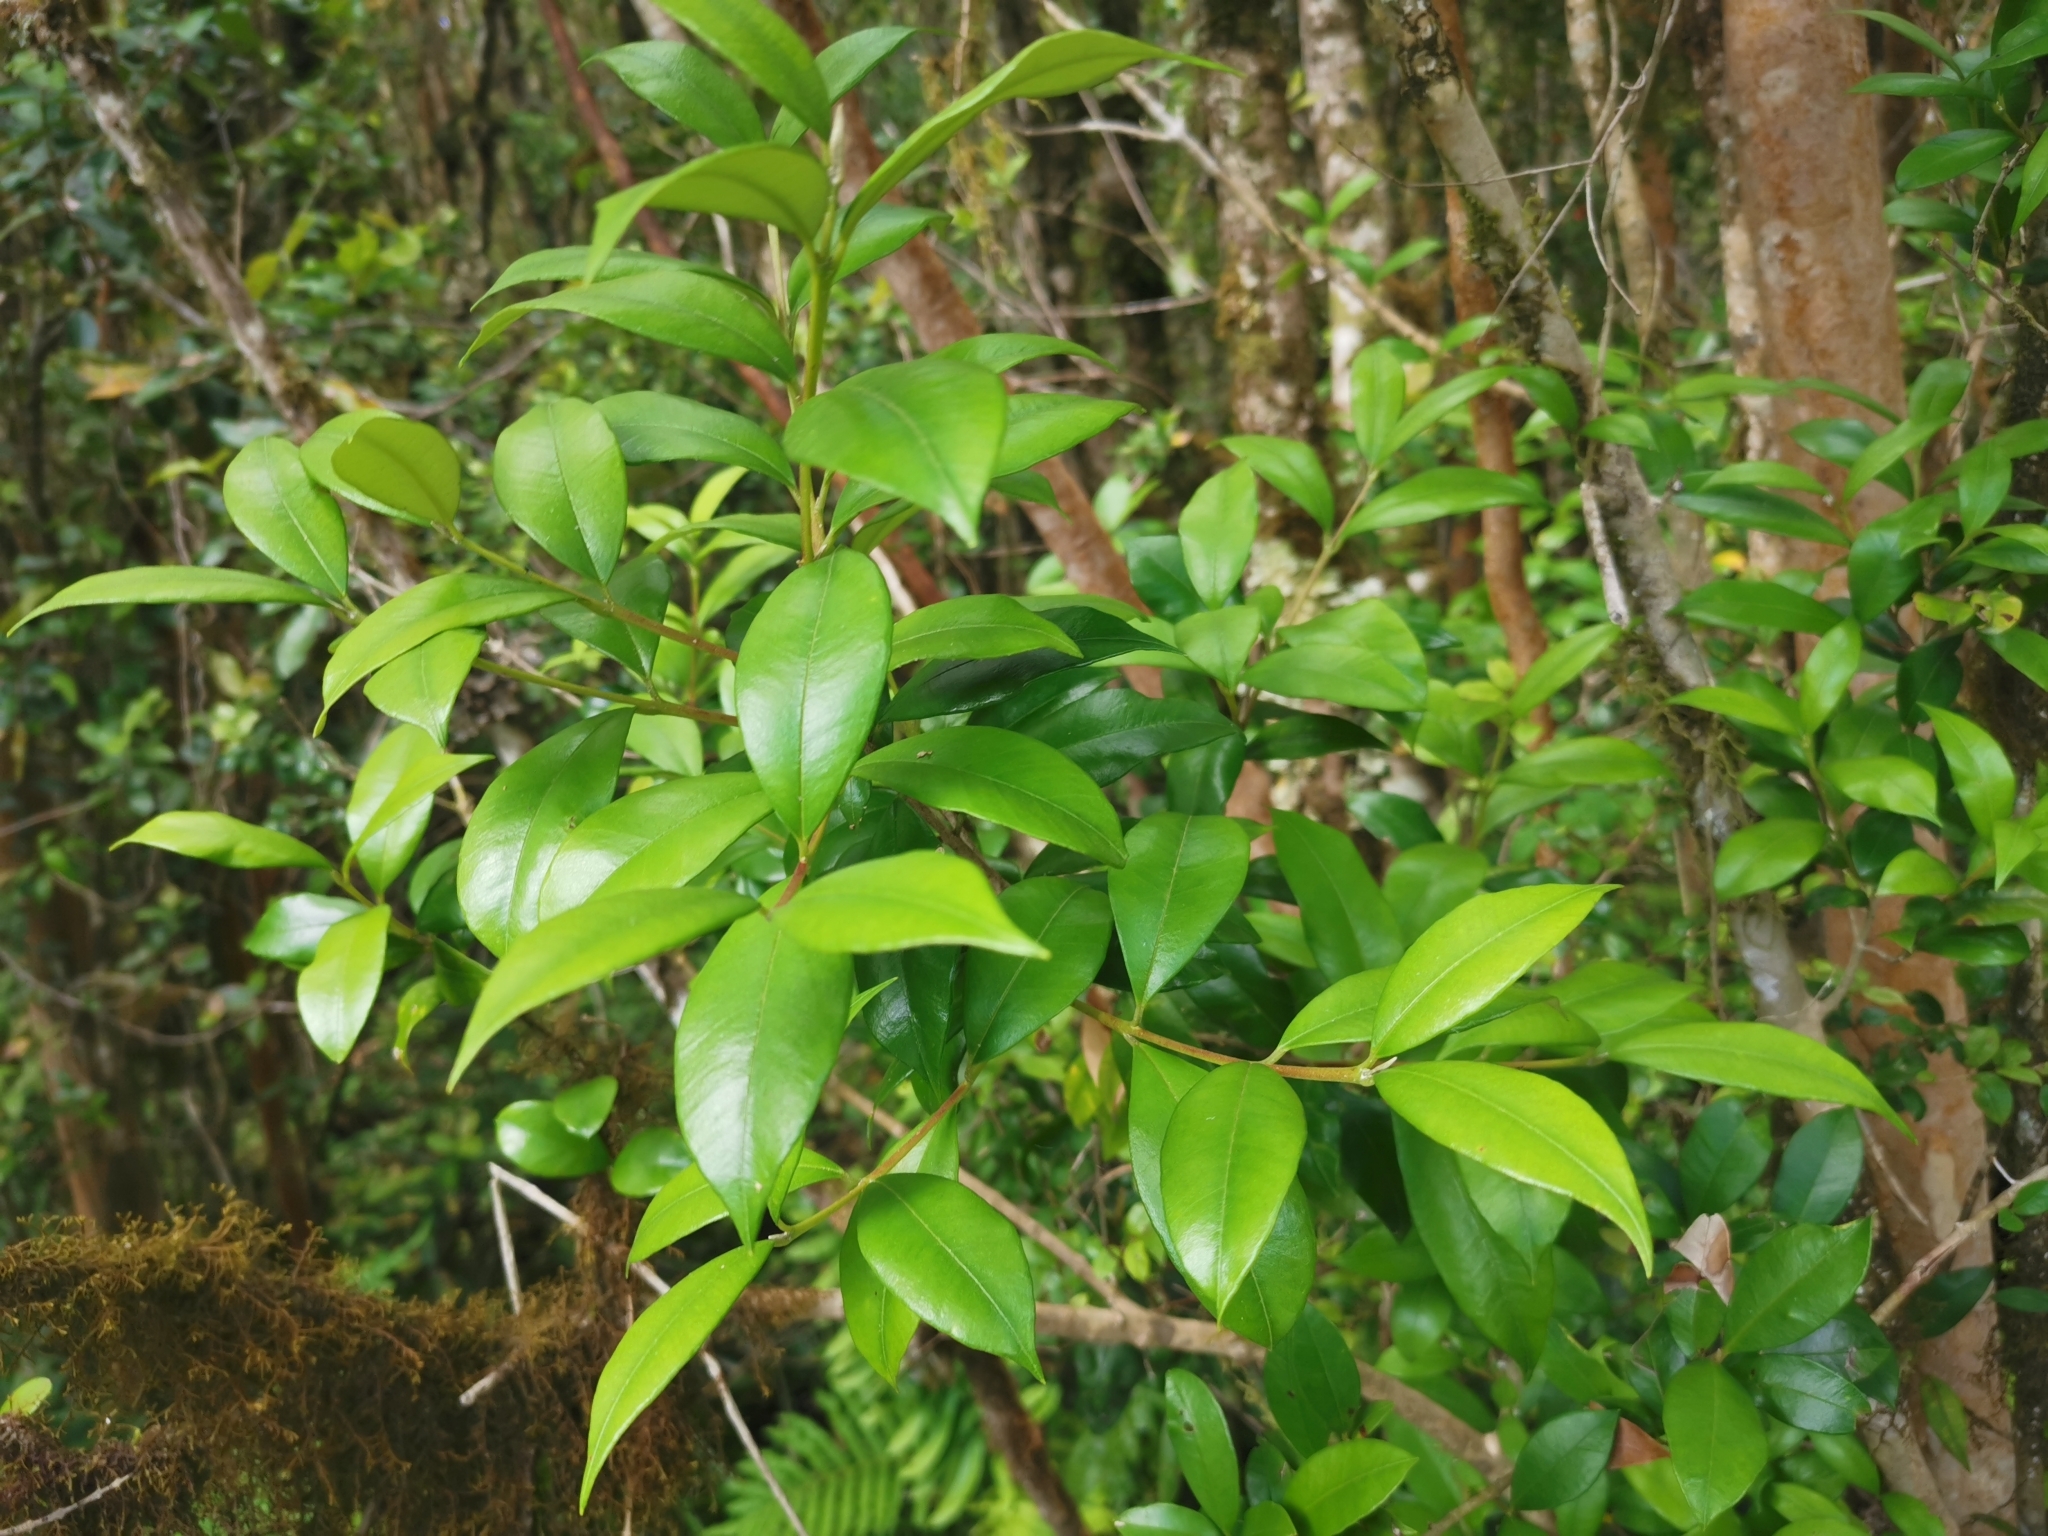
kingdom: Plantae
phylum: Tracheophyta
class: Magnoliopsida
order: Myrtales
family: Myrtaceae
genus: Myrceugenia
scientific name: Myrceugenia planipes
